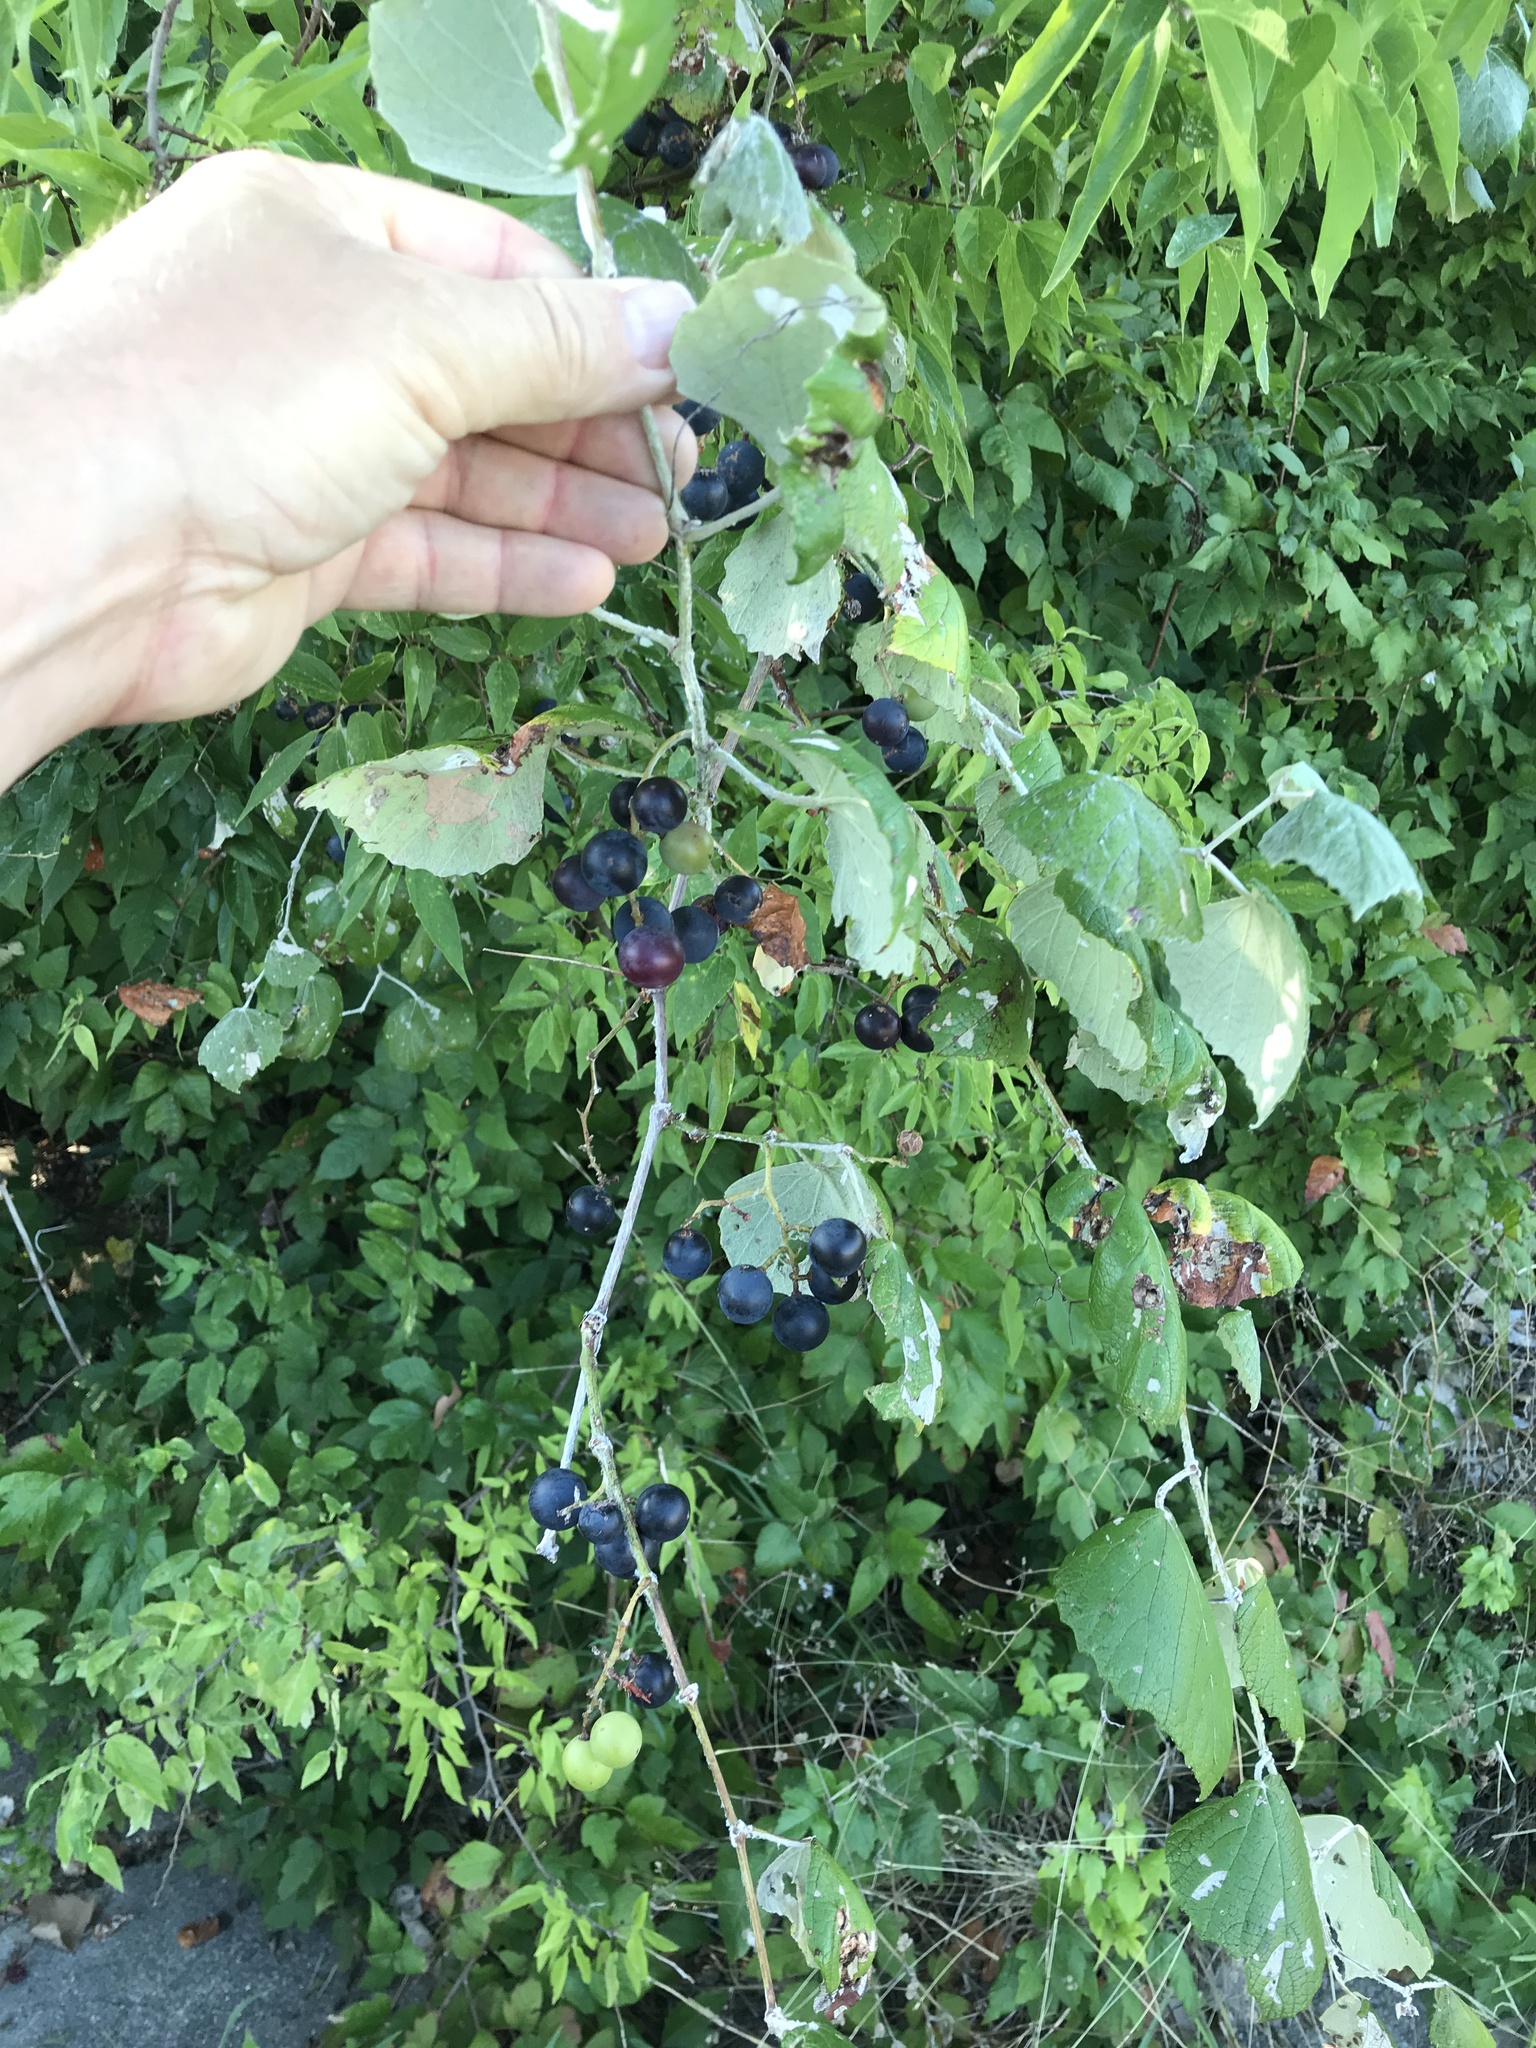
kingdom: Plantae
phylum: Tracheophyta
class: Magnoliopsida
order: Vitales
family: Vitaceae
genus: Vitis
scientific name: Vitis mustangensis
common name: Mustang grape
